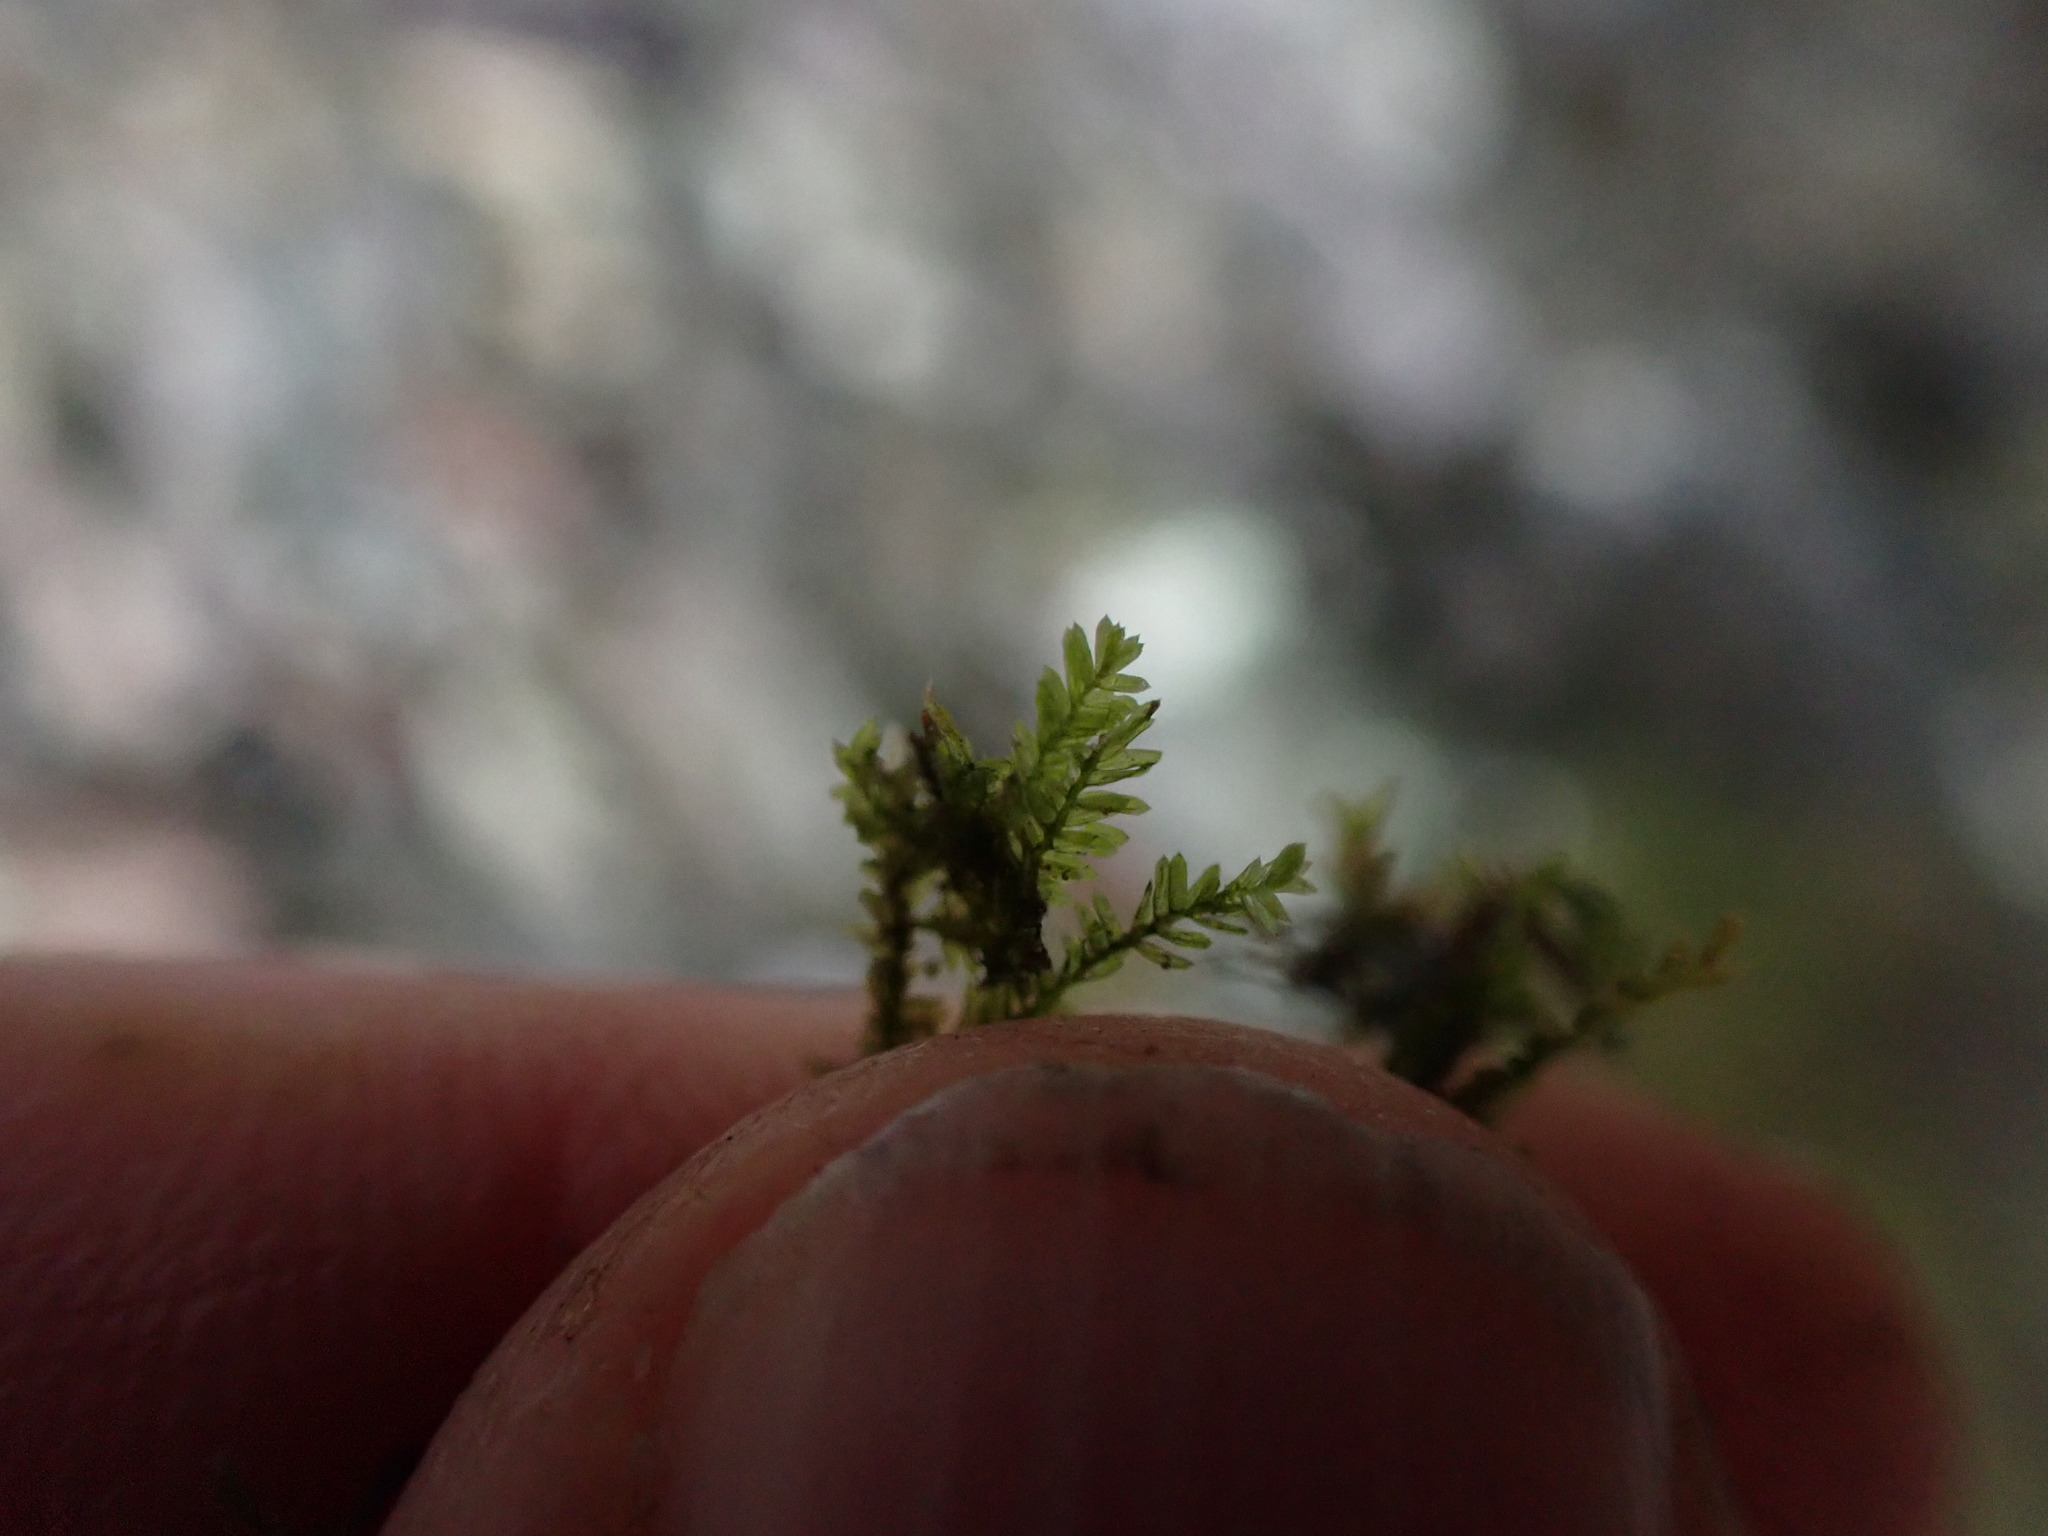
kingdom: Plantae
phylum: Bryophyta
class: Bryopsida
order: Hypnales
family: Neckeraceae
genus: Dannorrisia
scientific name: Dannorrisia bigelovii
